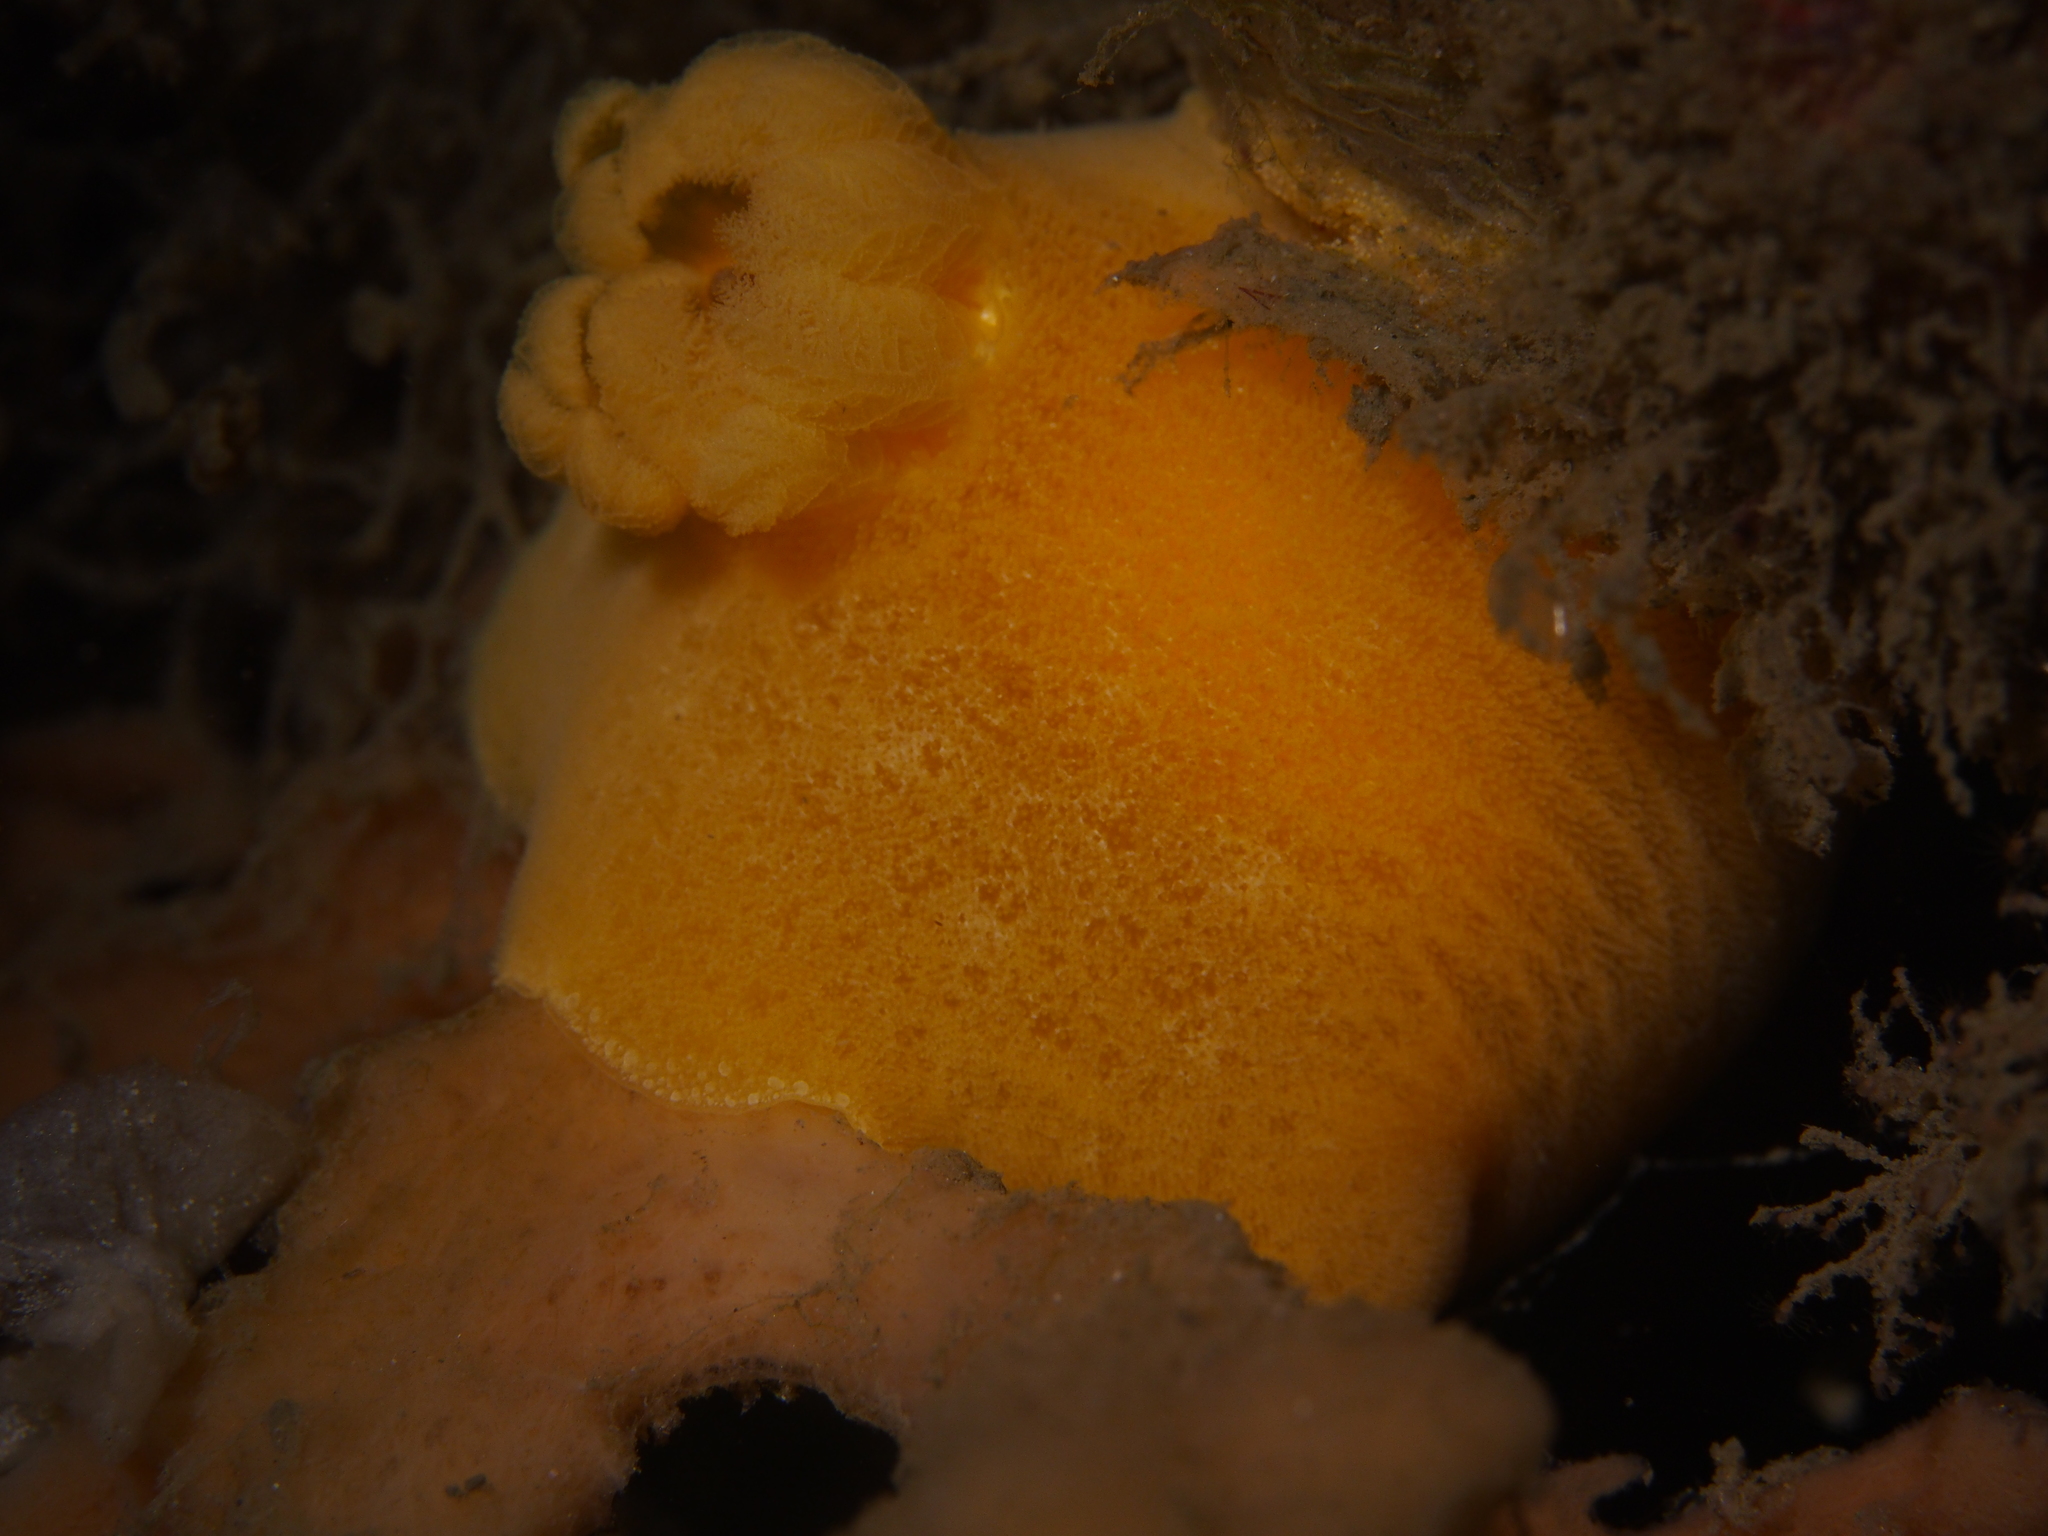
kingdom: Animalia
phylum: Mollusca
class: Gastropoda
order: Nudibranchia
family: Discodorididae
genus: Jorunna
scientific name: Jorunna tomentosa
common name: Grey sea slug
